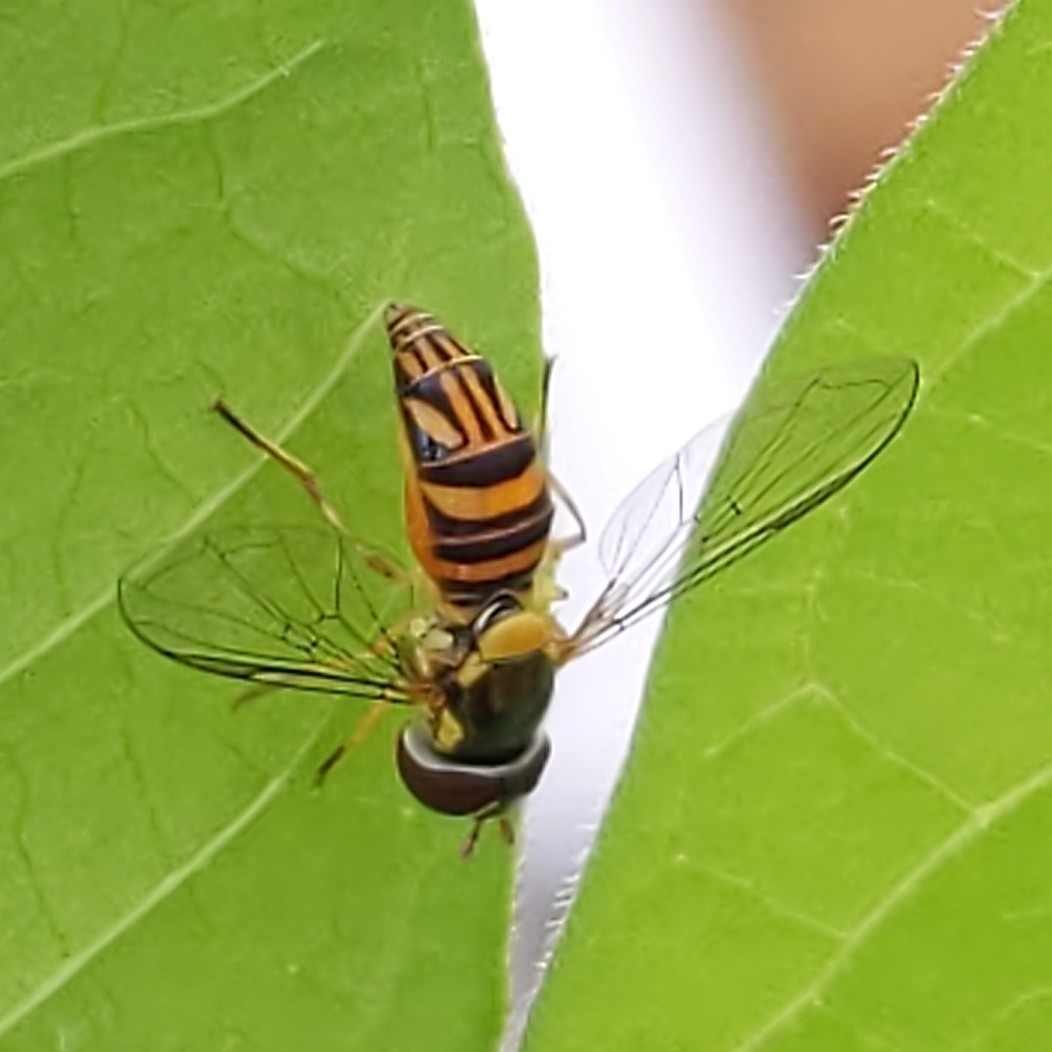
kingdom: Animalia
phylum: Arthropoda
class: Insecta
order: Diptera
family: Syrphidae
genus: Allograpta
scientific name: Allograpta obliqua
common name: Common oblique syrphid
